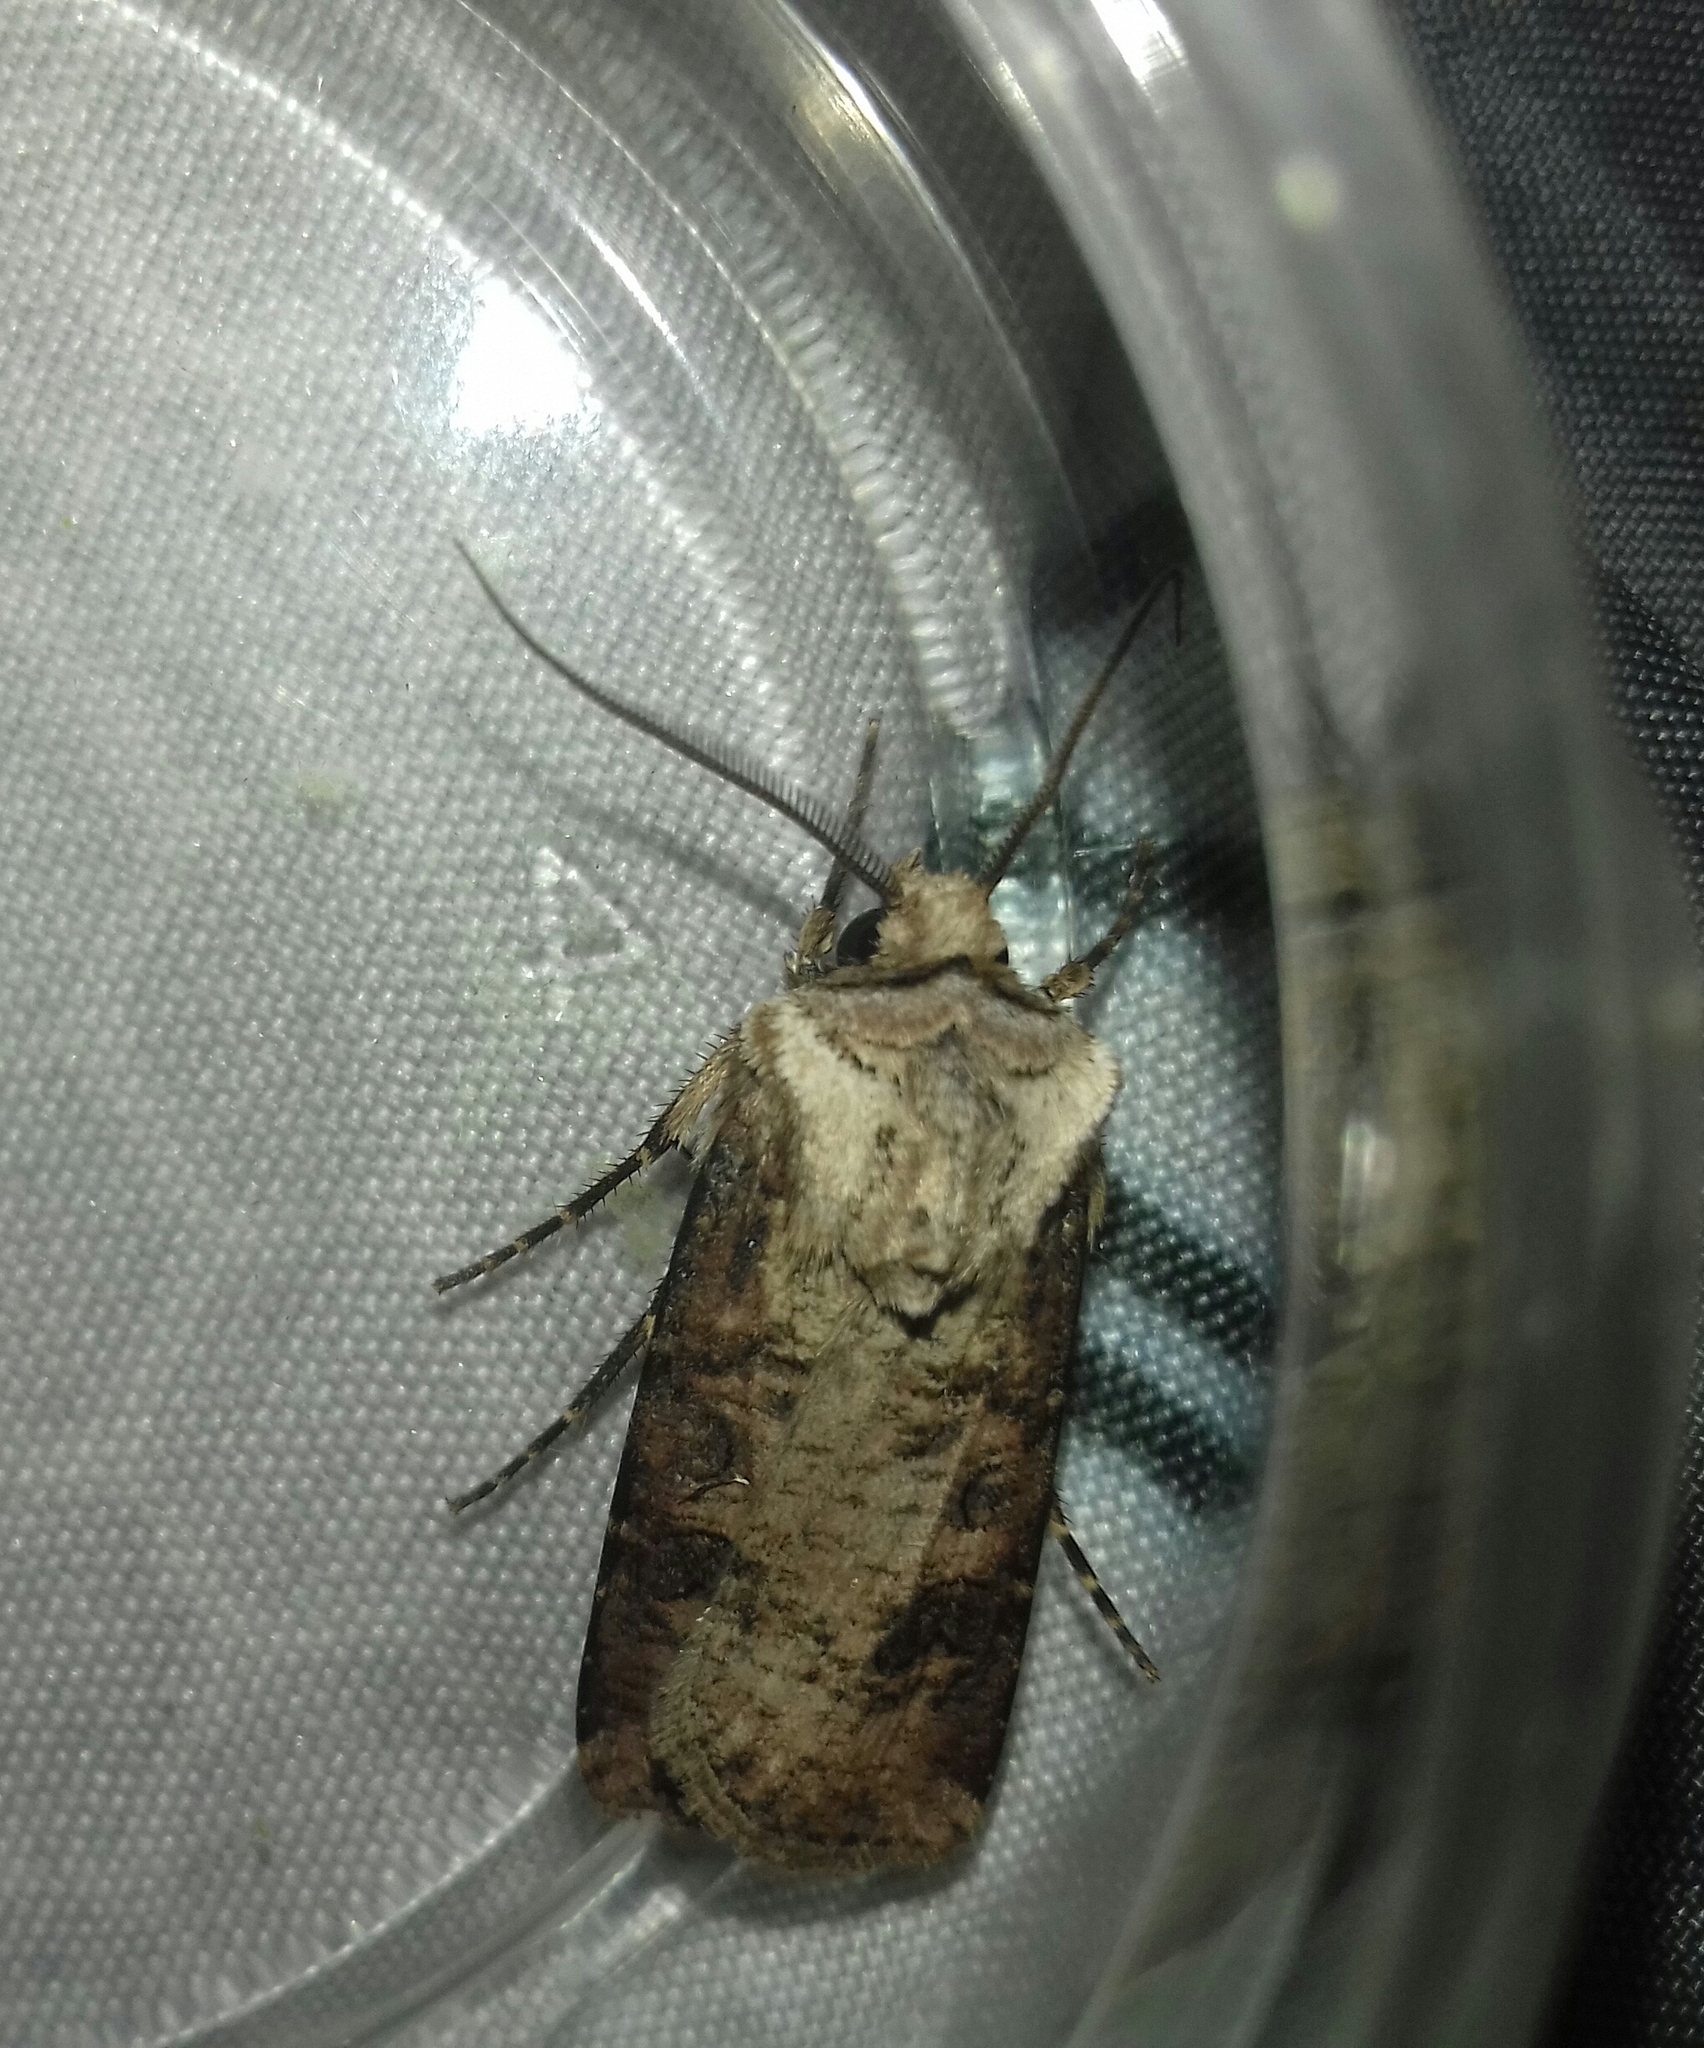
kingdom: Animalia
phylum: Arthropoda
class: Insecta
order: Lepidoptera
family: Noctuidae
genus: Agrotis
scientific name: Agrotis clavis
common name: Heart and club
